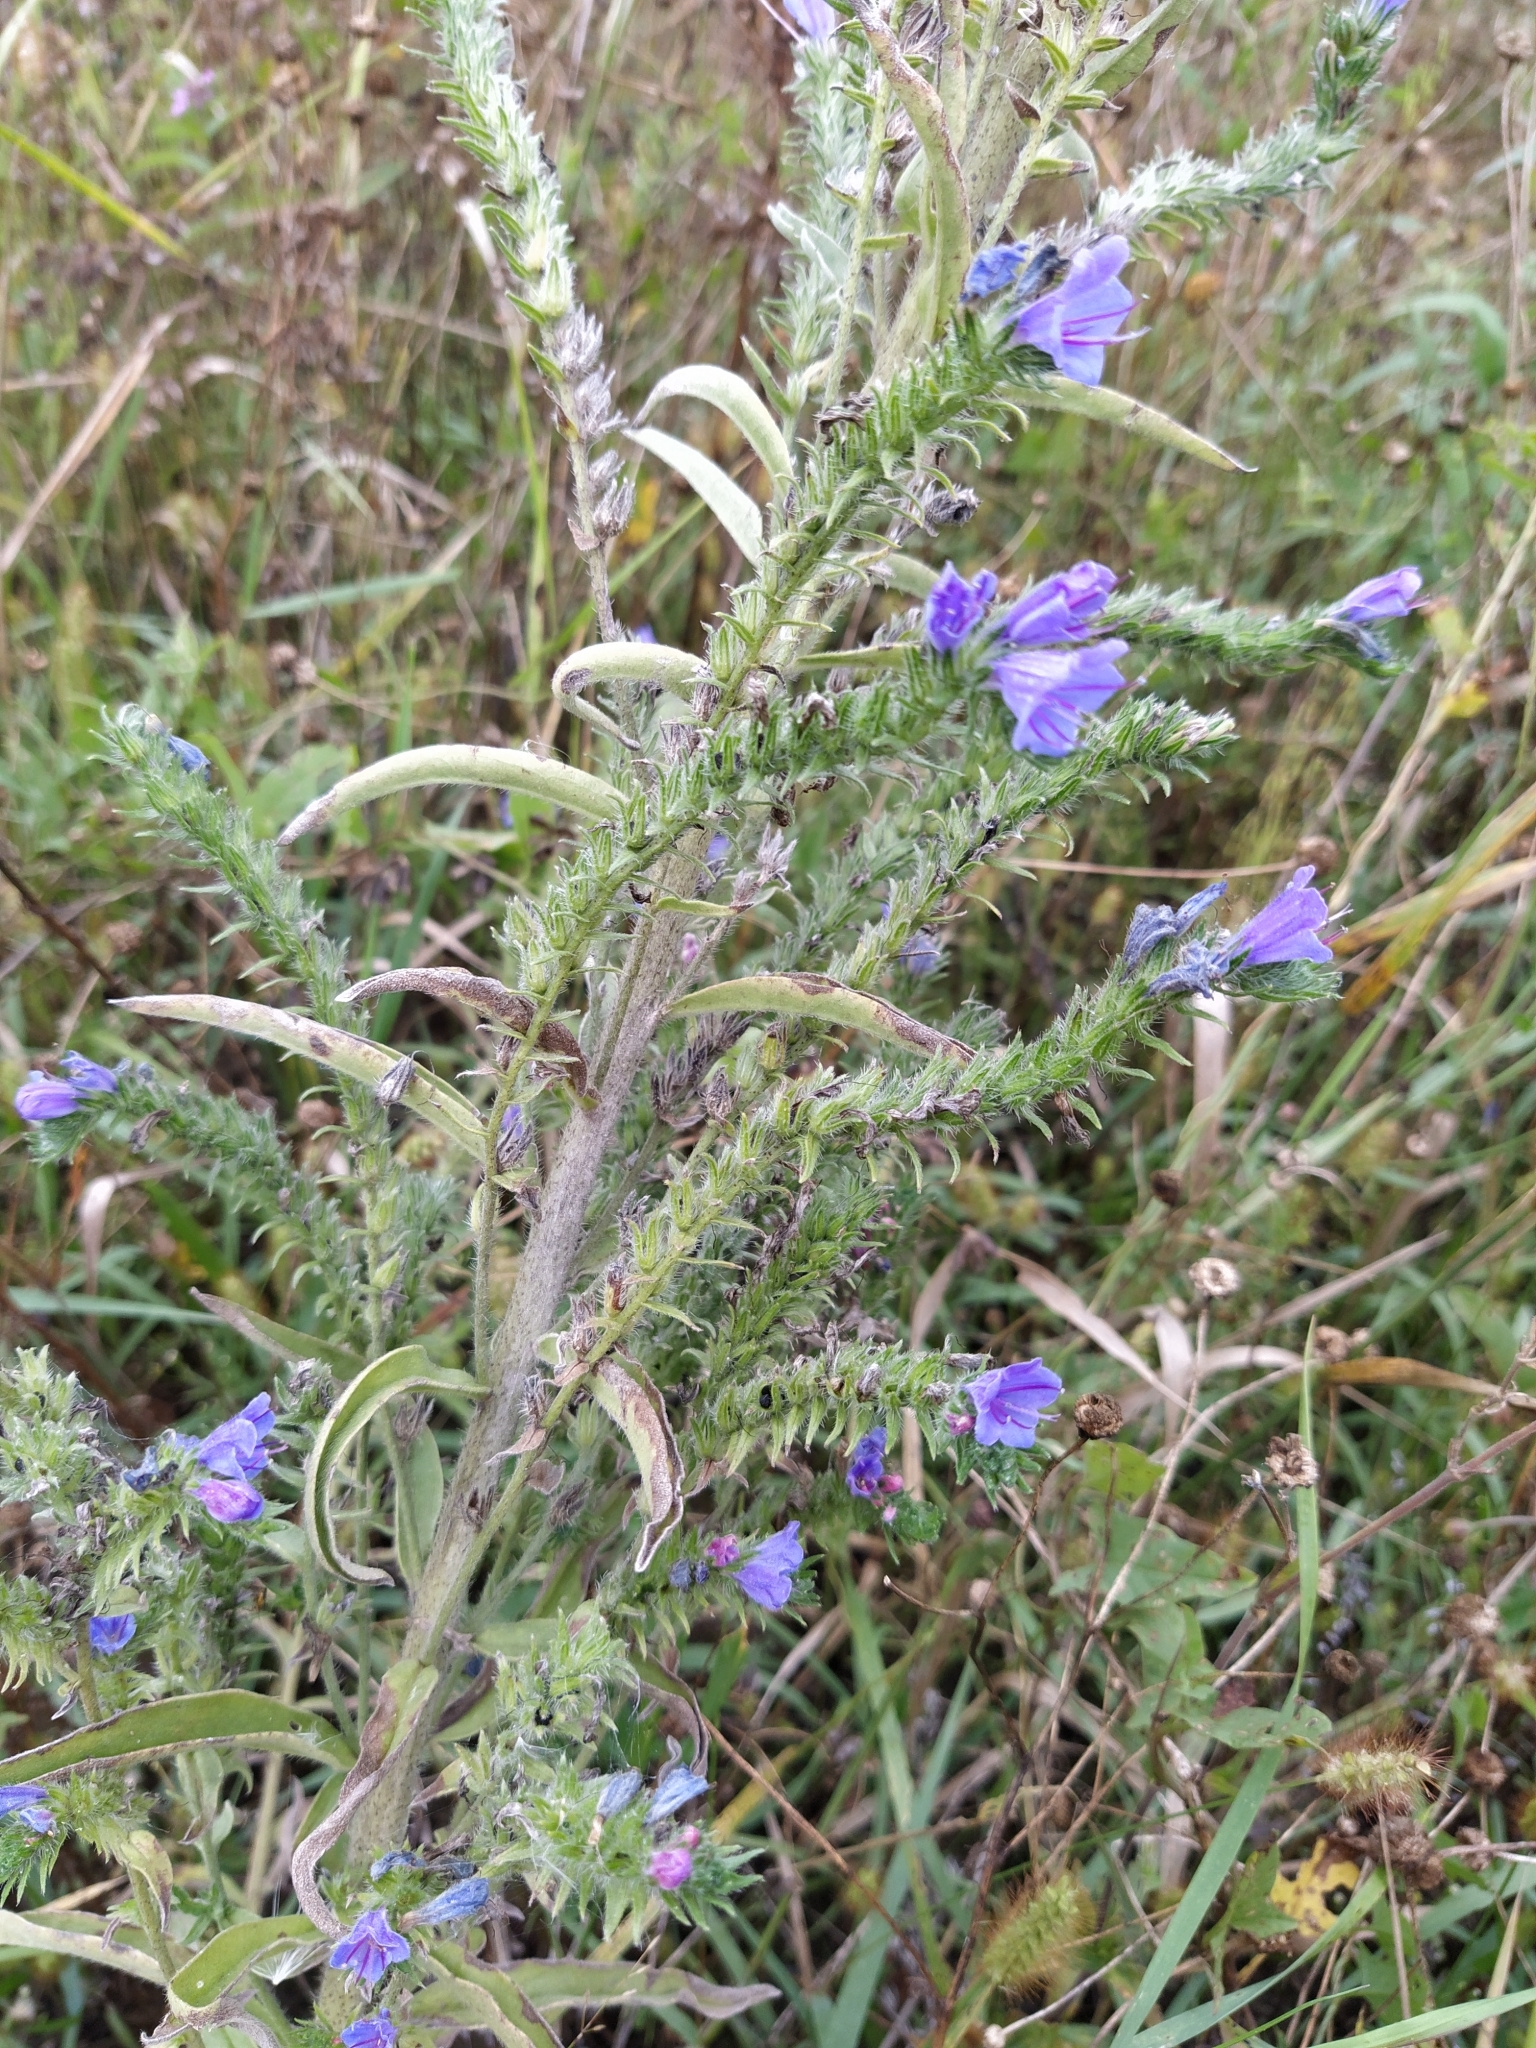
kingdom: Plantae
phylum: Tracheophyta
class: Magnoliopsida
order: Boraginales
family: Boraginaceae
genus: Echium
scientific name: Echium vulgare
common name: Common viper's bugloss
